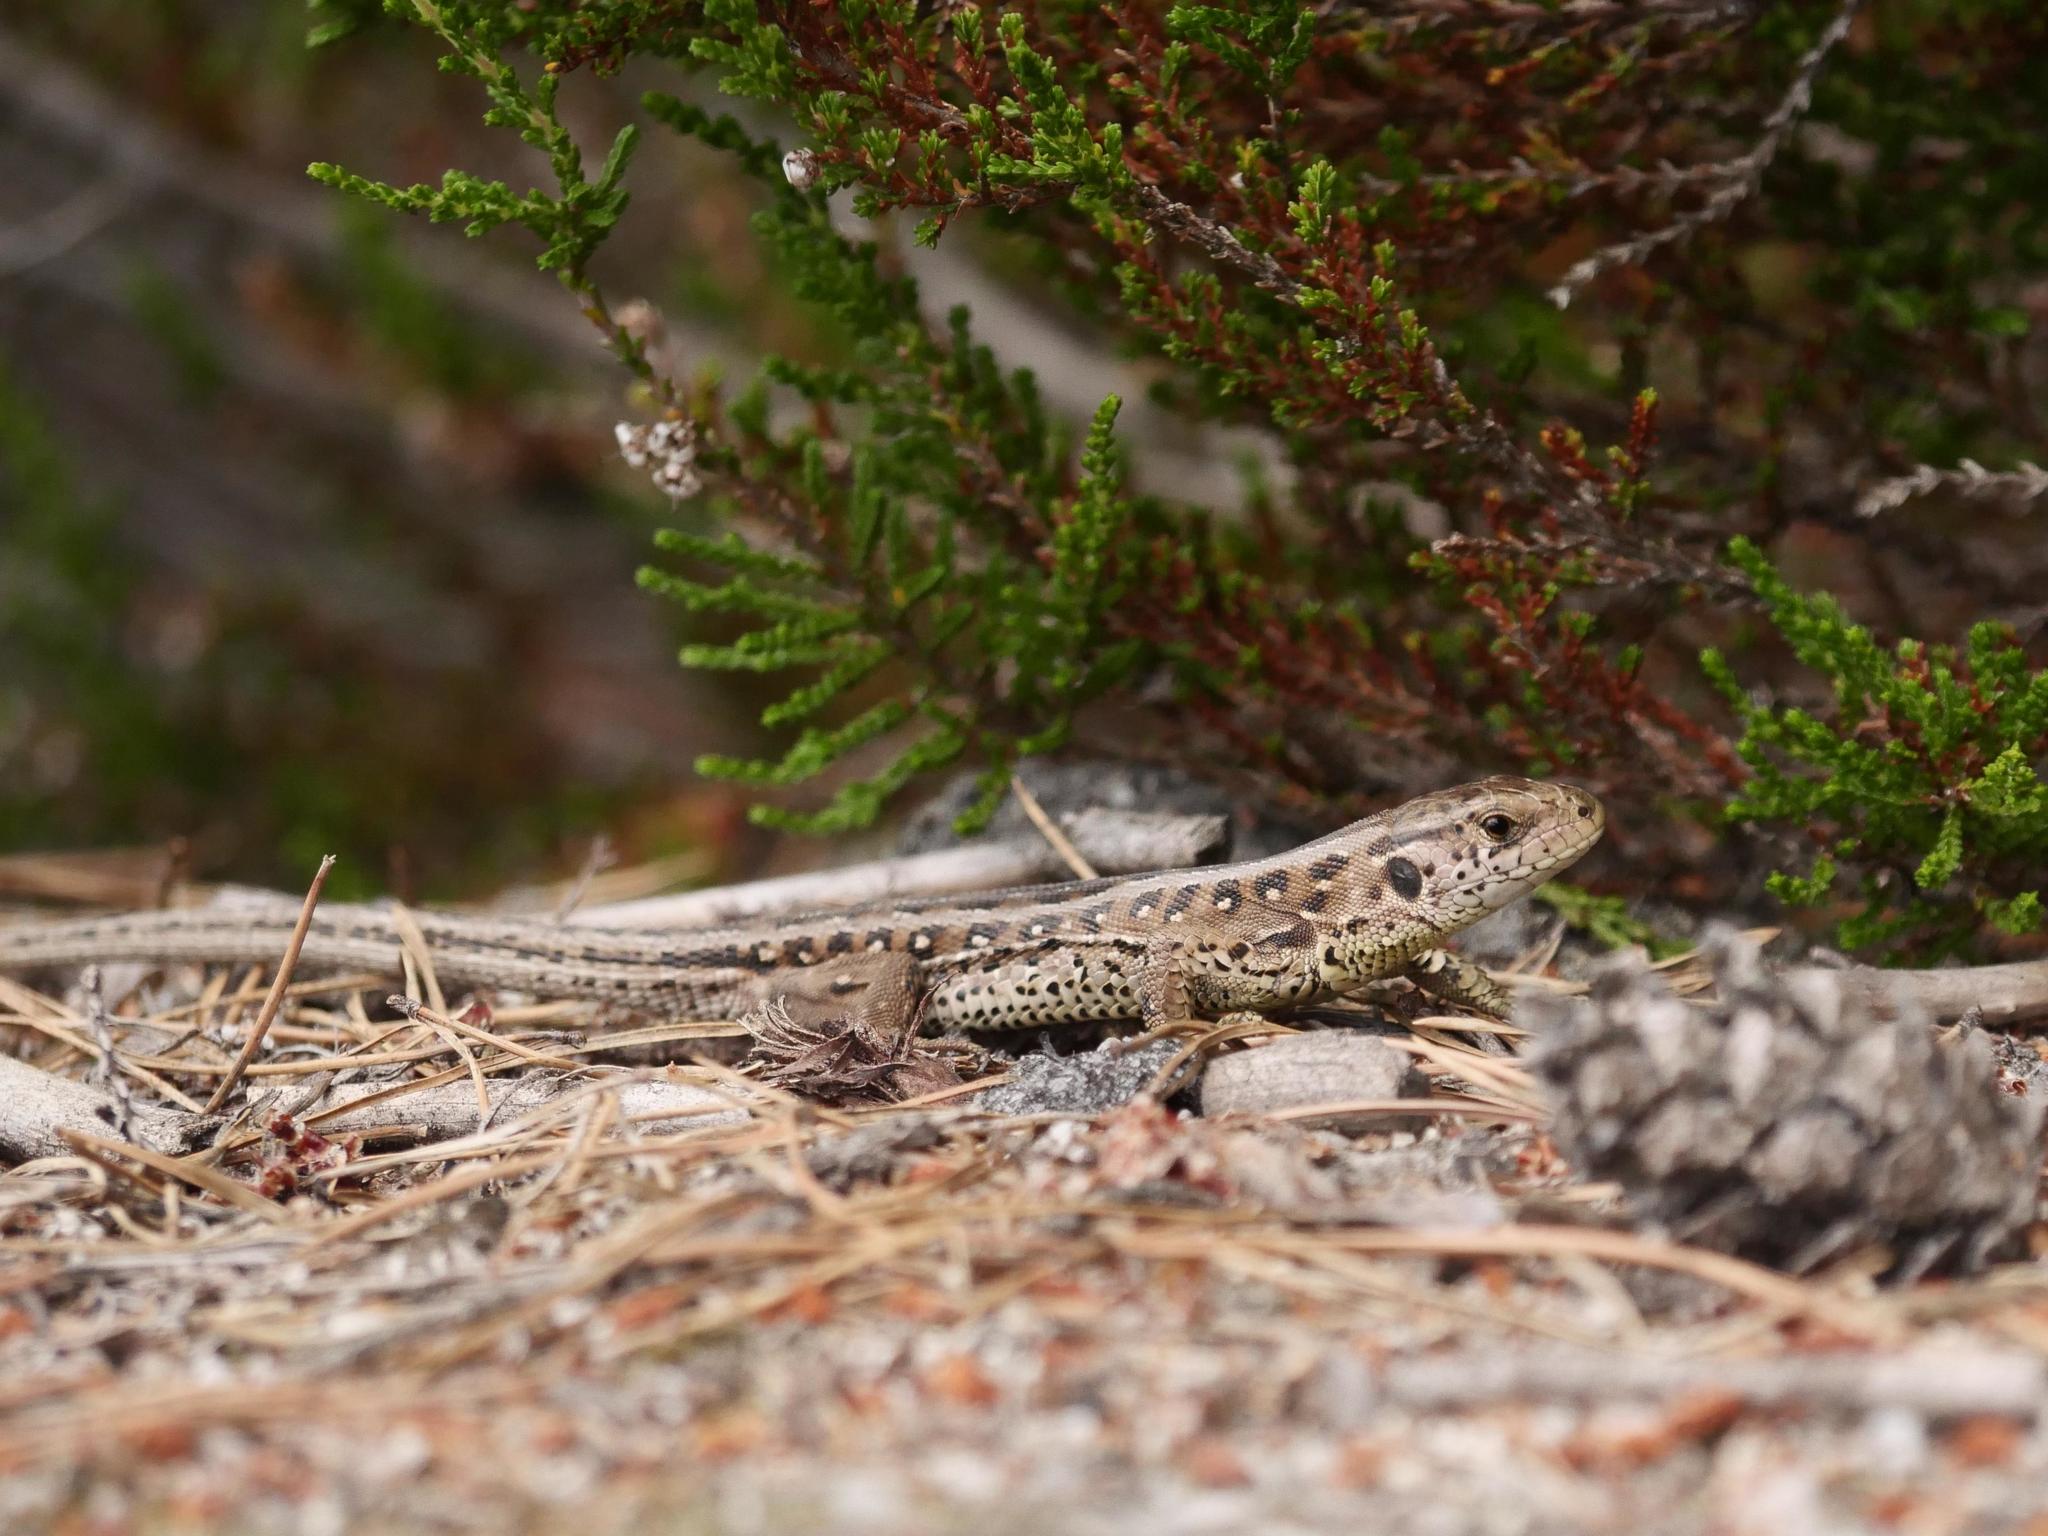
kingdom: Animalia
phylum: Chordata
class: Squamata
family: Lacertidae
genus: Lacerta
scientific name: Lacerta agilis
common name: Sand lizard
